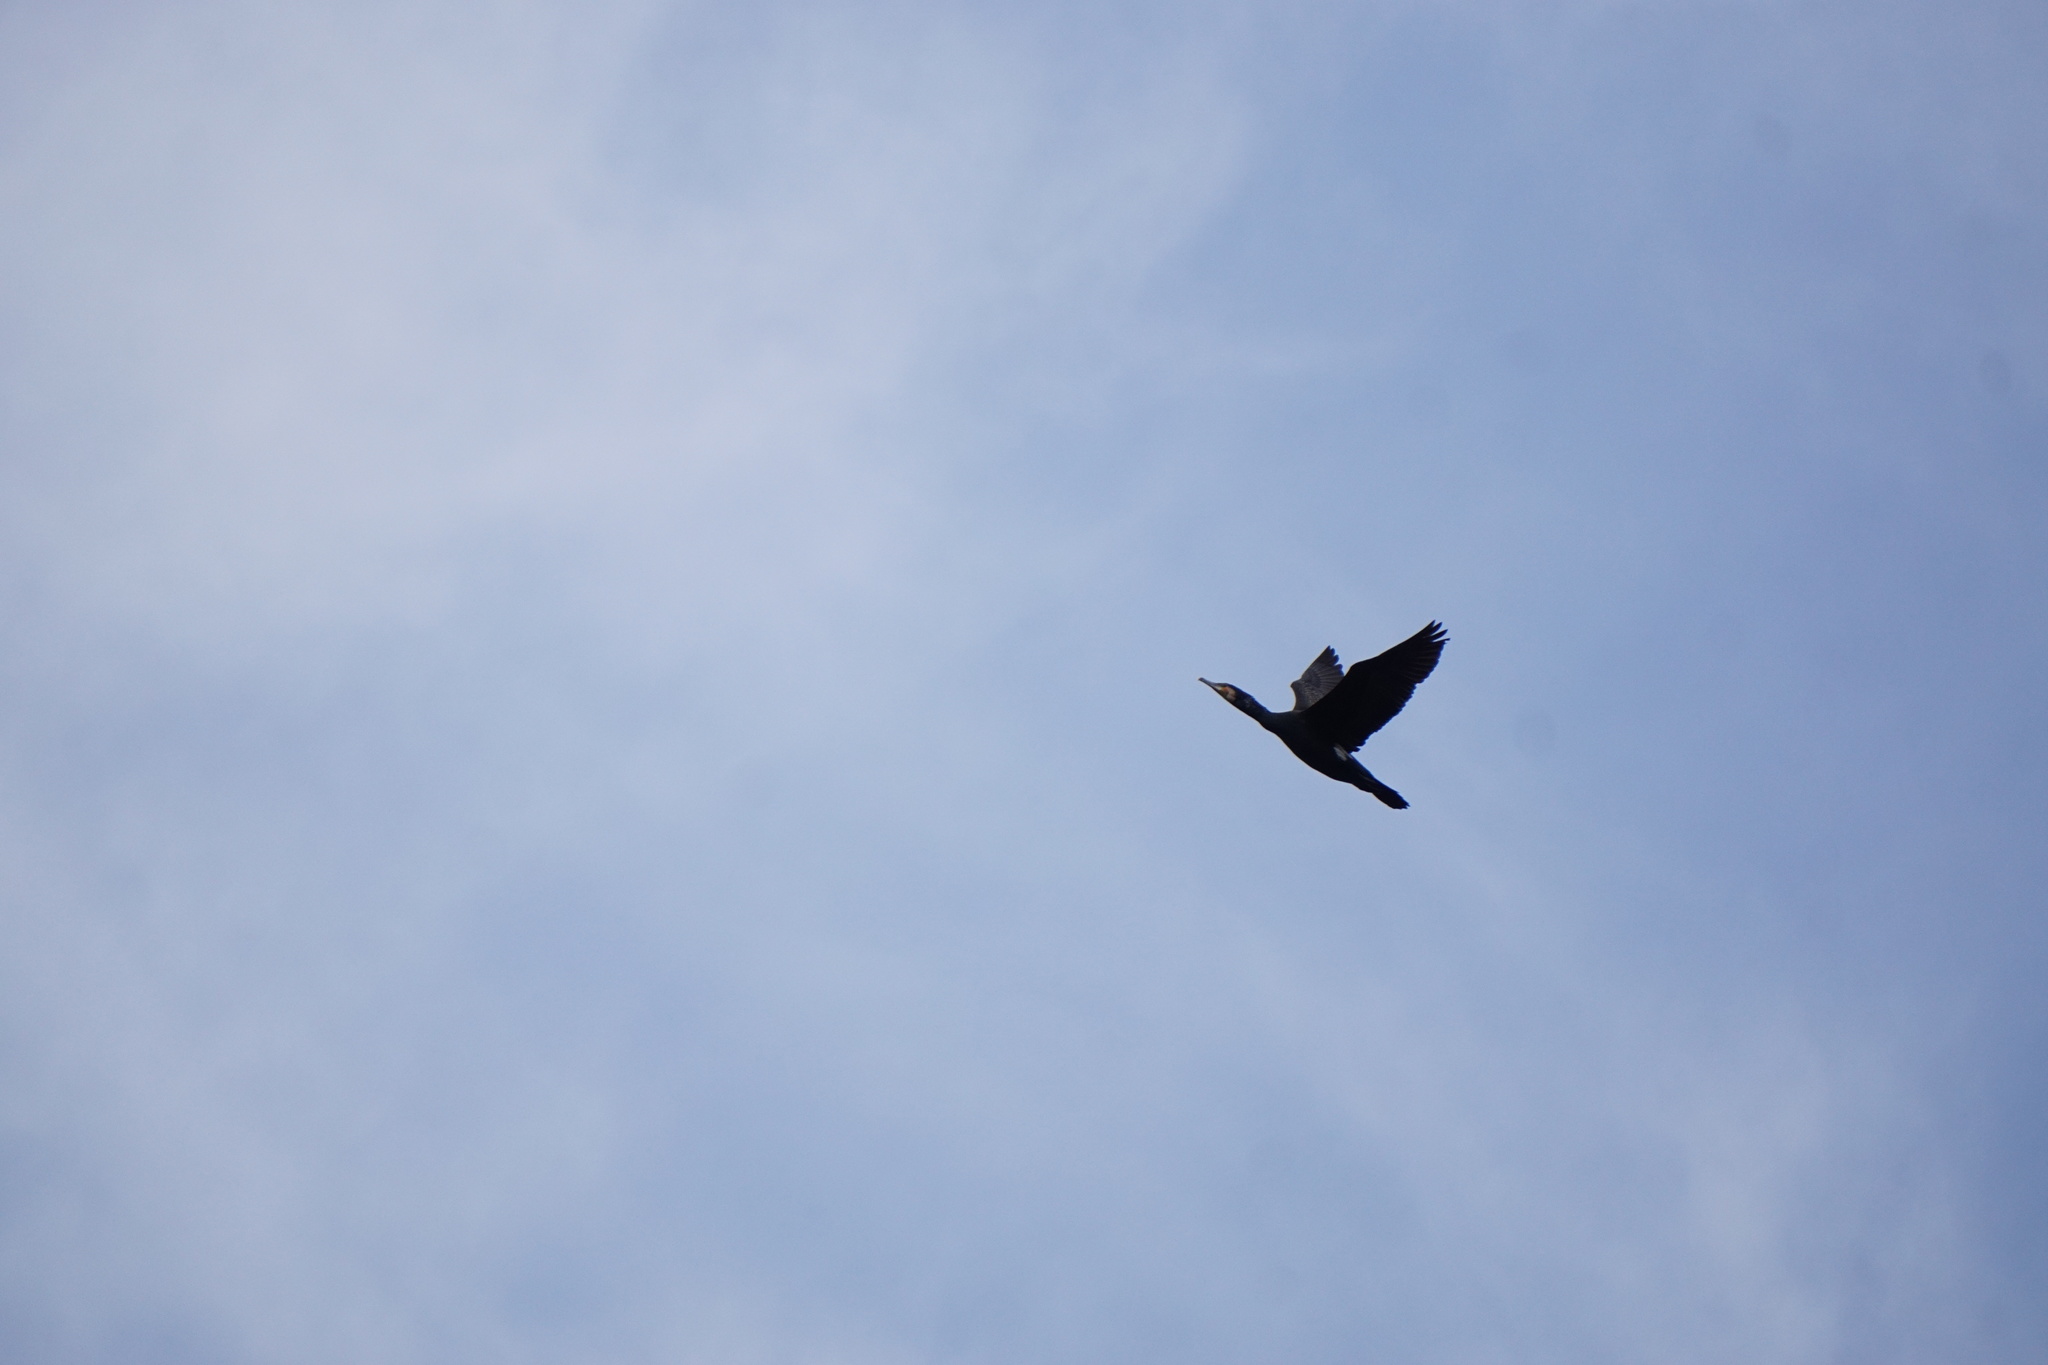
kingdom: Animalia
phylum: Chordata
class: Aves
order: Suliformes
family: Phalacrocoracidae
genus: Phalacrocorax
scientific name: Phalacrocorax carbo
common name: Great cormorant
